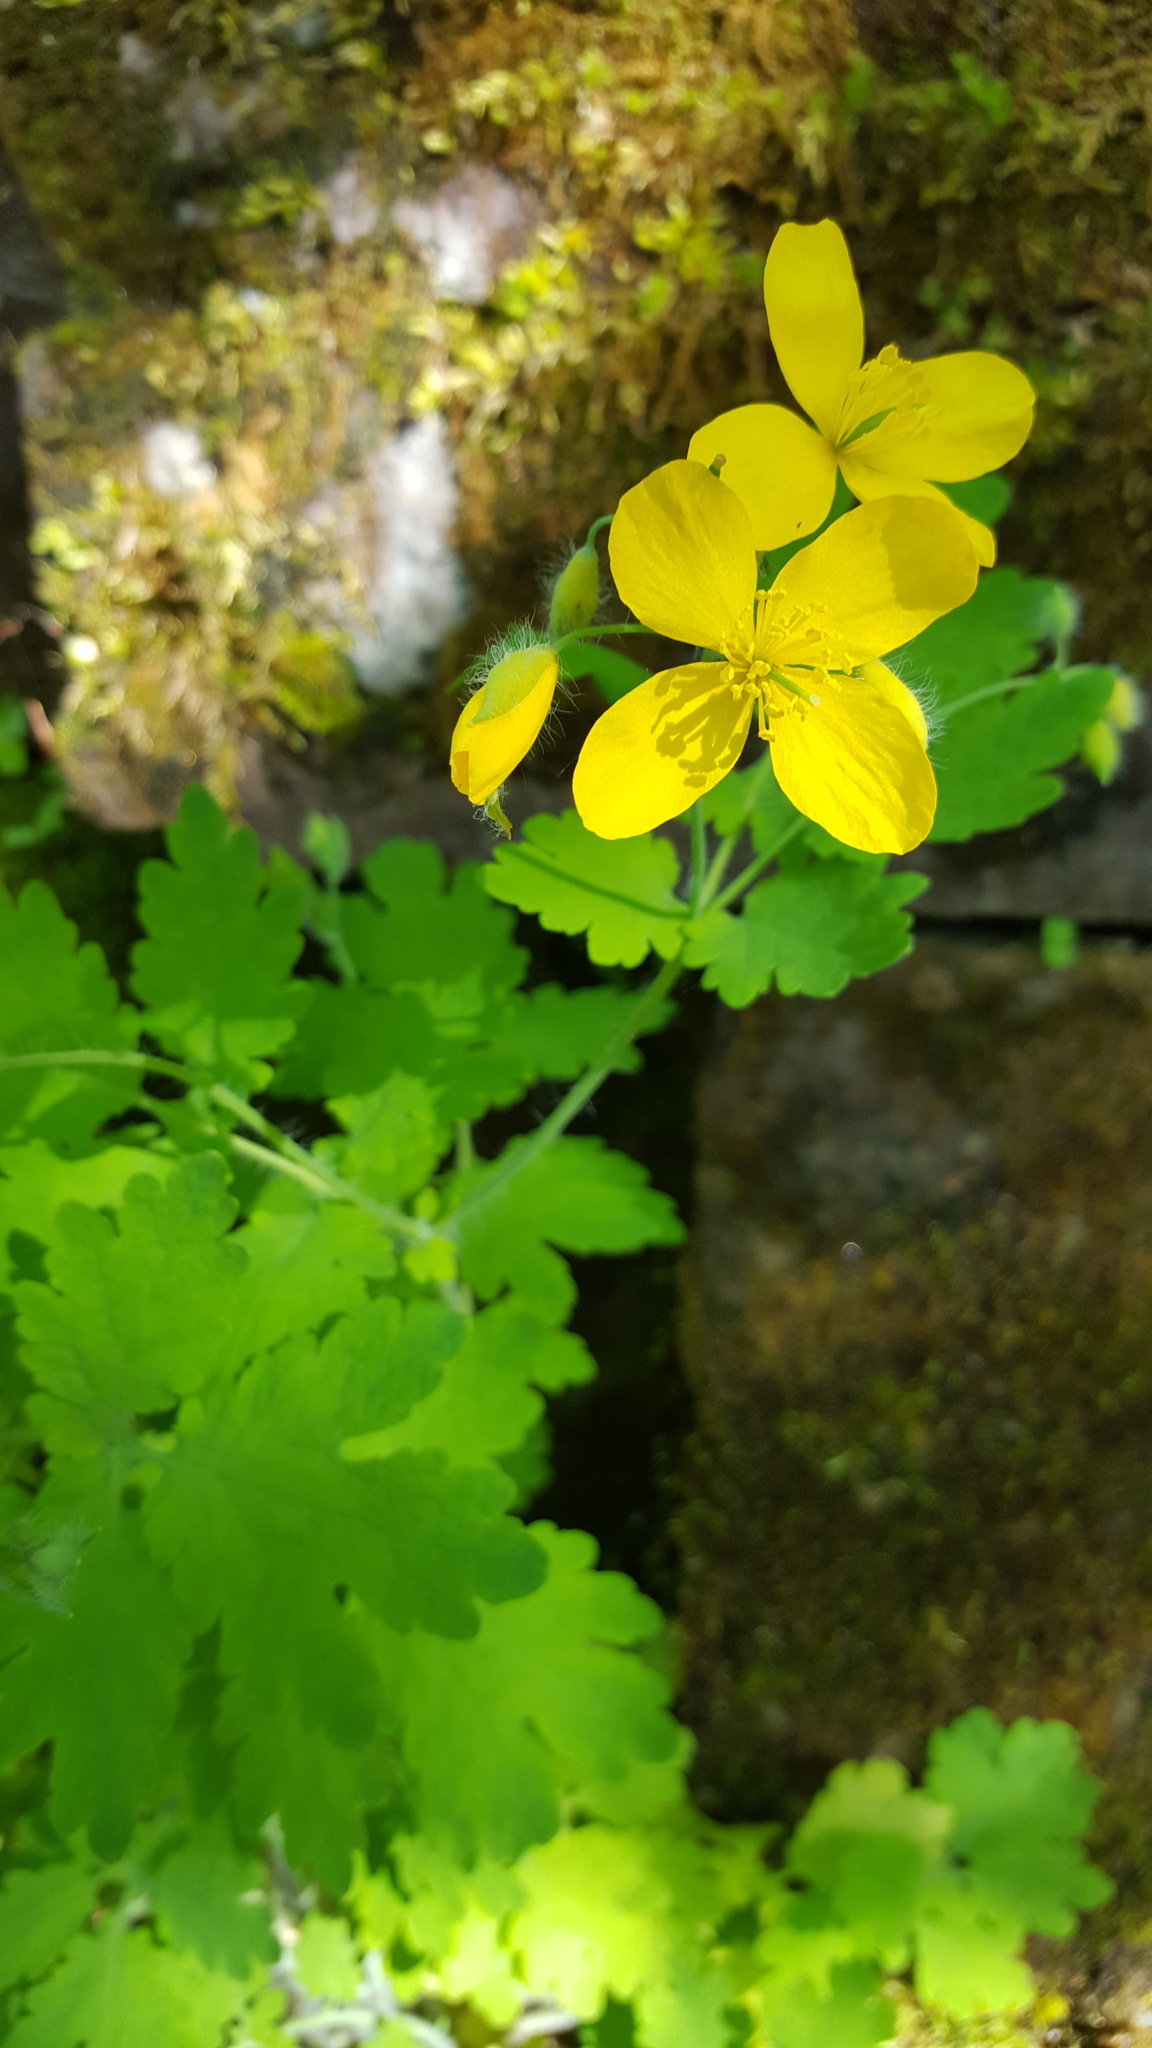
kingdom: Plantae
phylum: Tracheophyta
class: Magnoliopsida
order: Ranunculales
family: Papaveraceae
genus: Chelidonium
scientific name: Chelidonium majus
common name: Greater celandine
